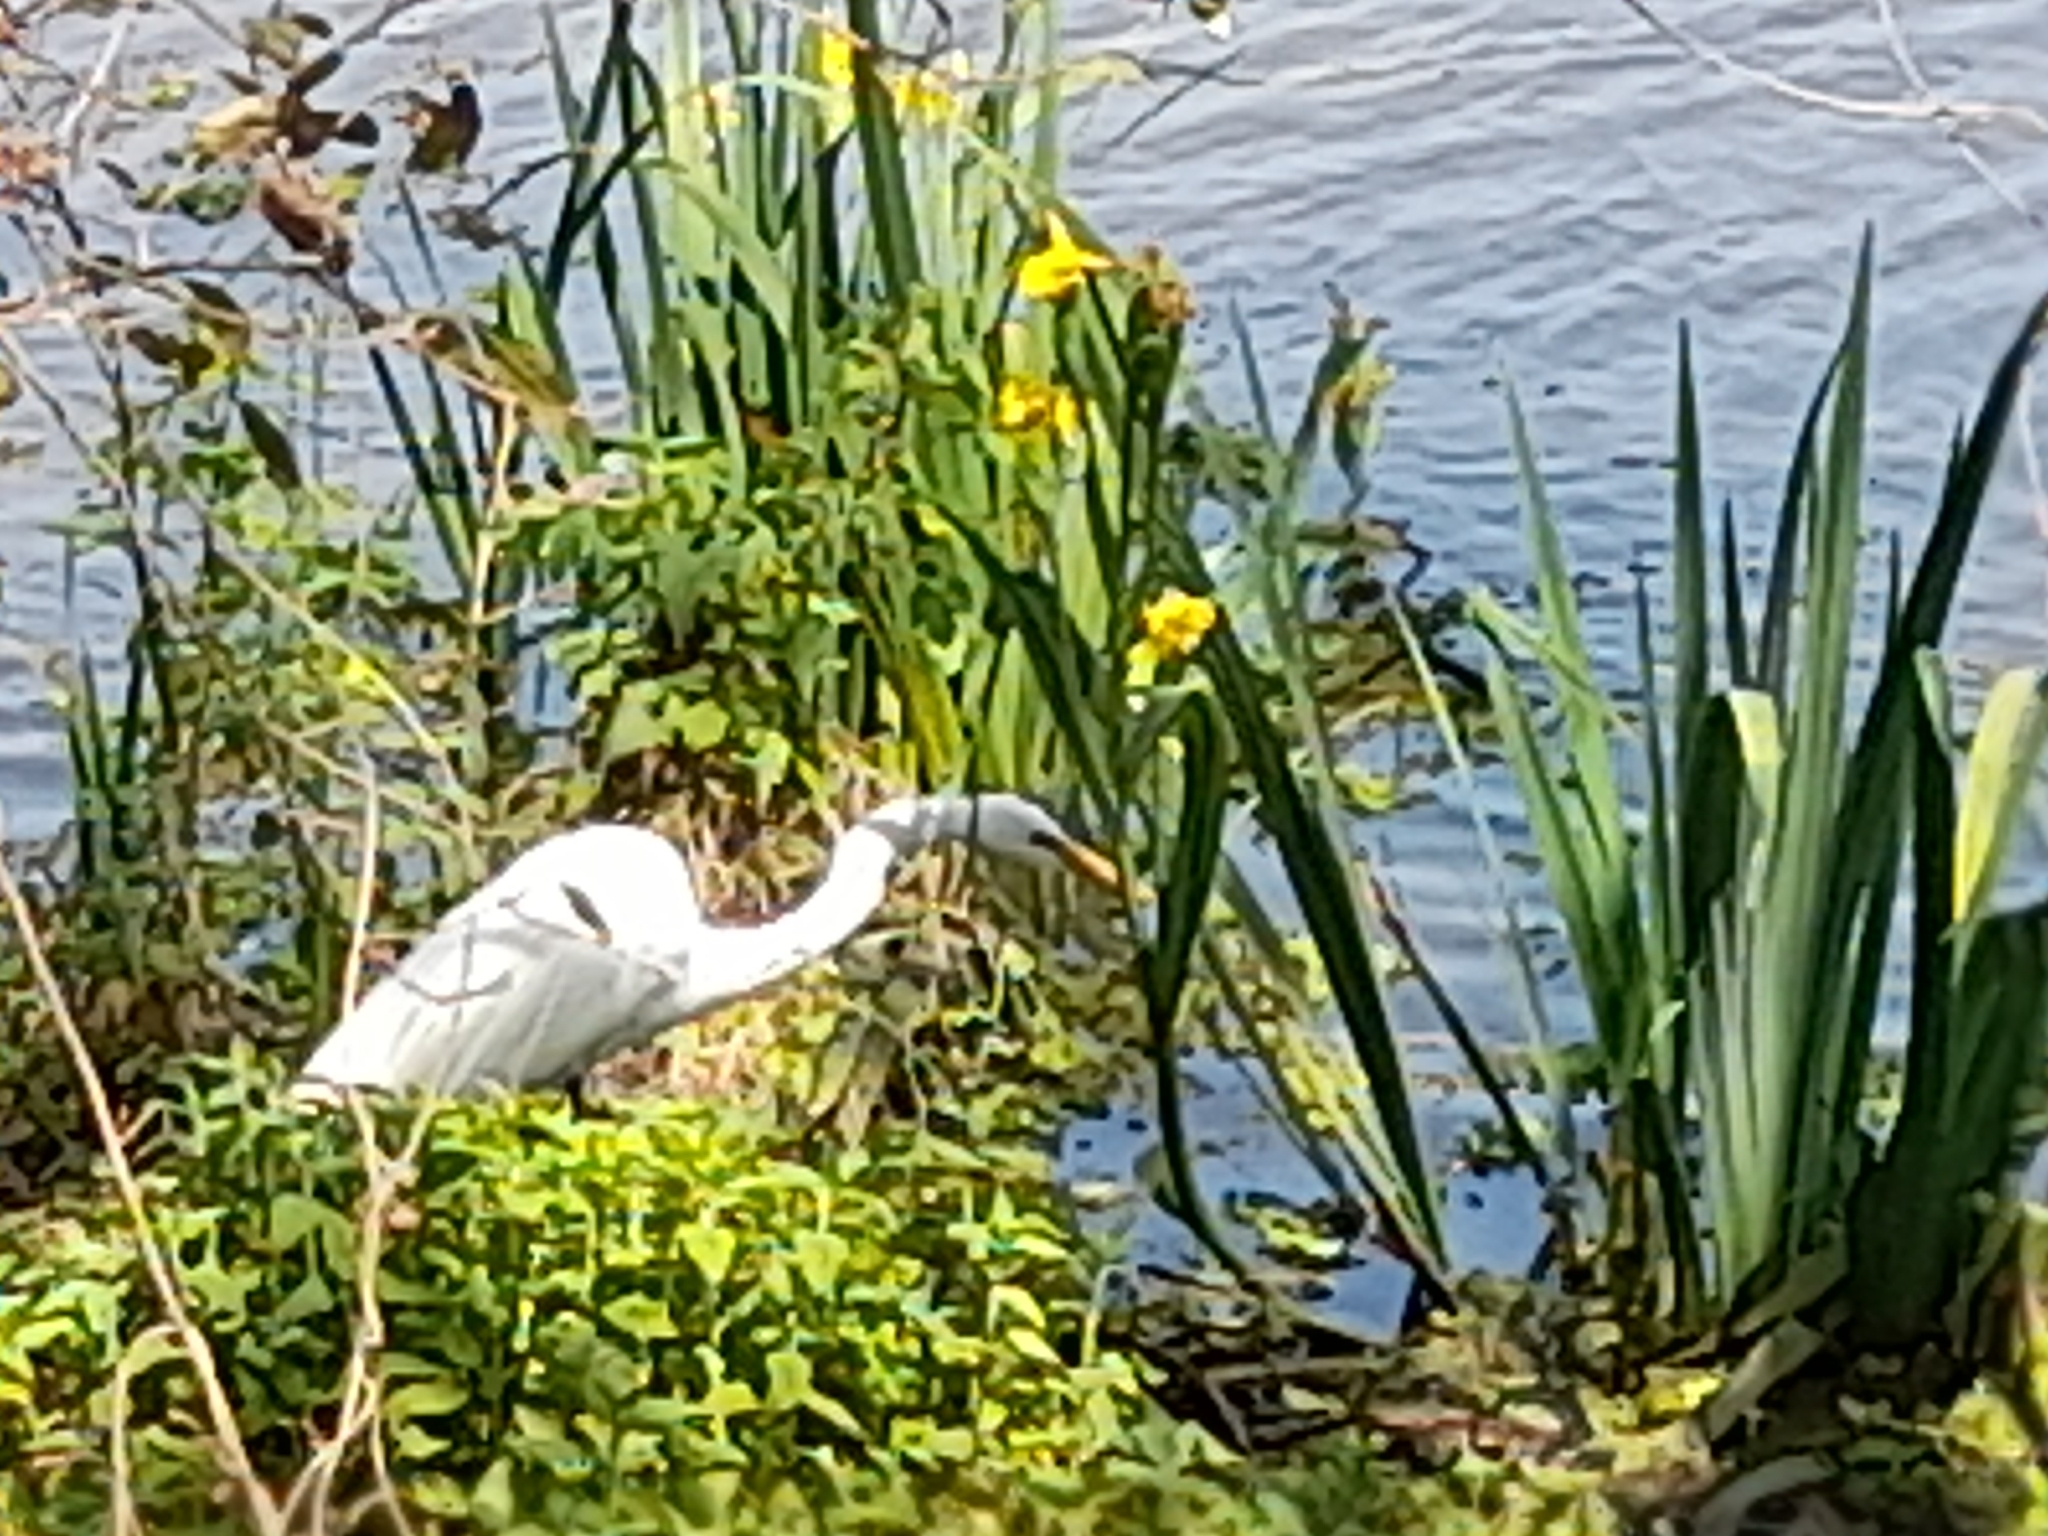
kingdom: Animalia
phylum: Chordata
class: Aves
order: Pelecaniformes
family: Ardeidae
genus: Ardea
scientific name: Ardea alba
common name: Great egret
